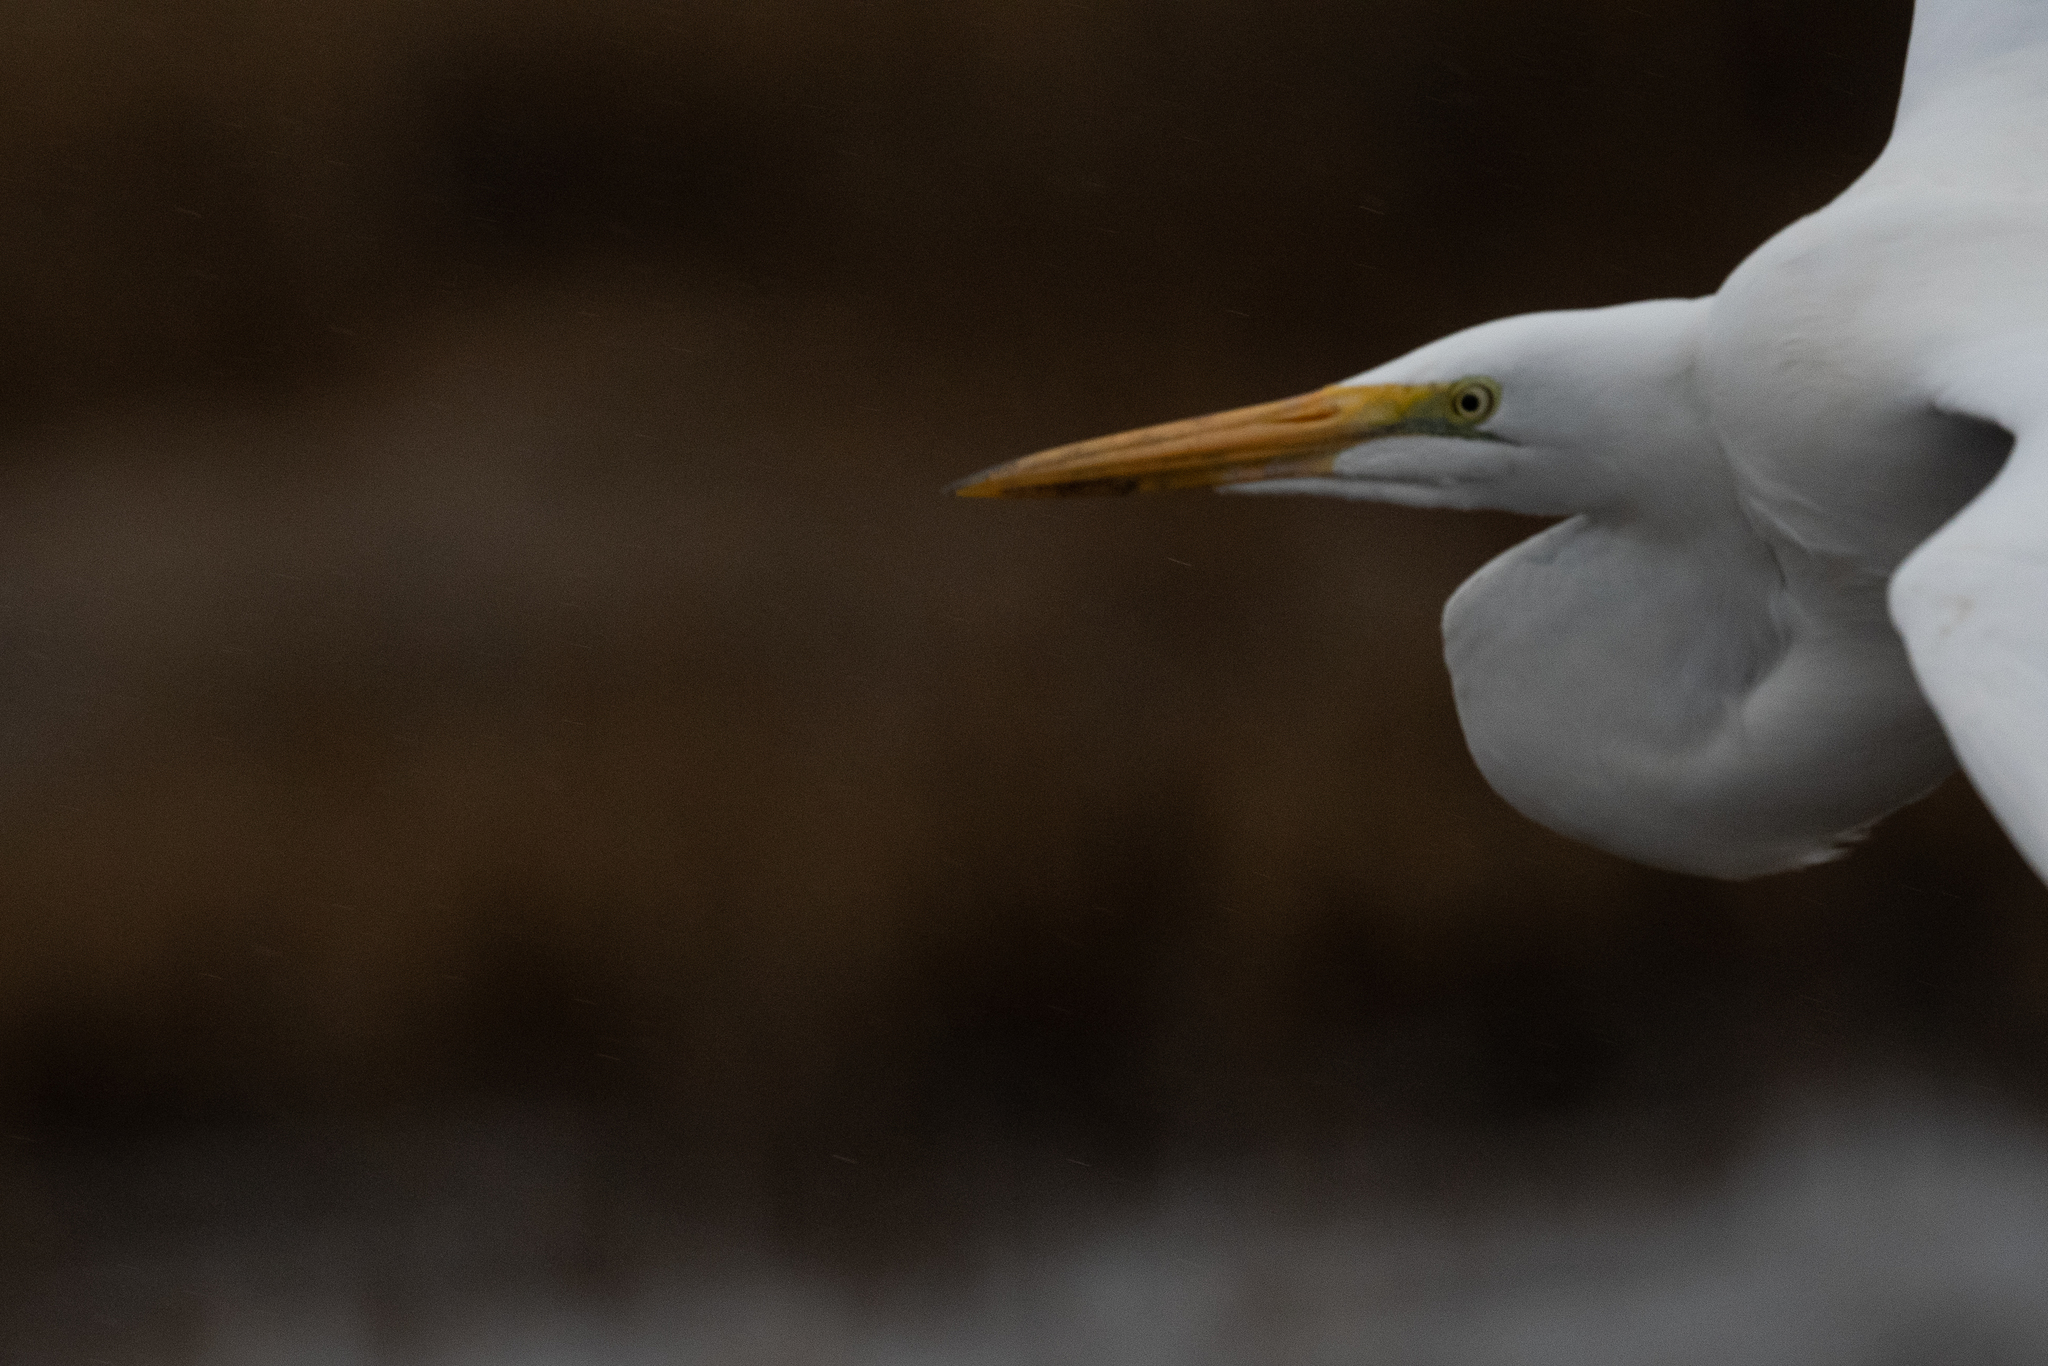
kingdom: Animalia
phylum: Chordata
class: Aves
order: Pelecaniformes
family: Ardeidae
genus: Ardea
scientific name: Ardea alba
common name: Great egret
